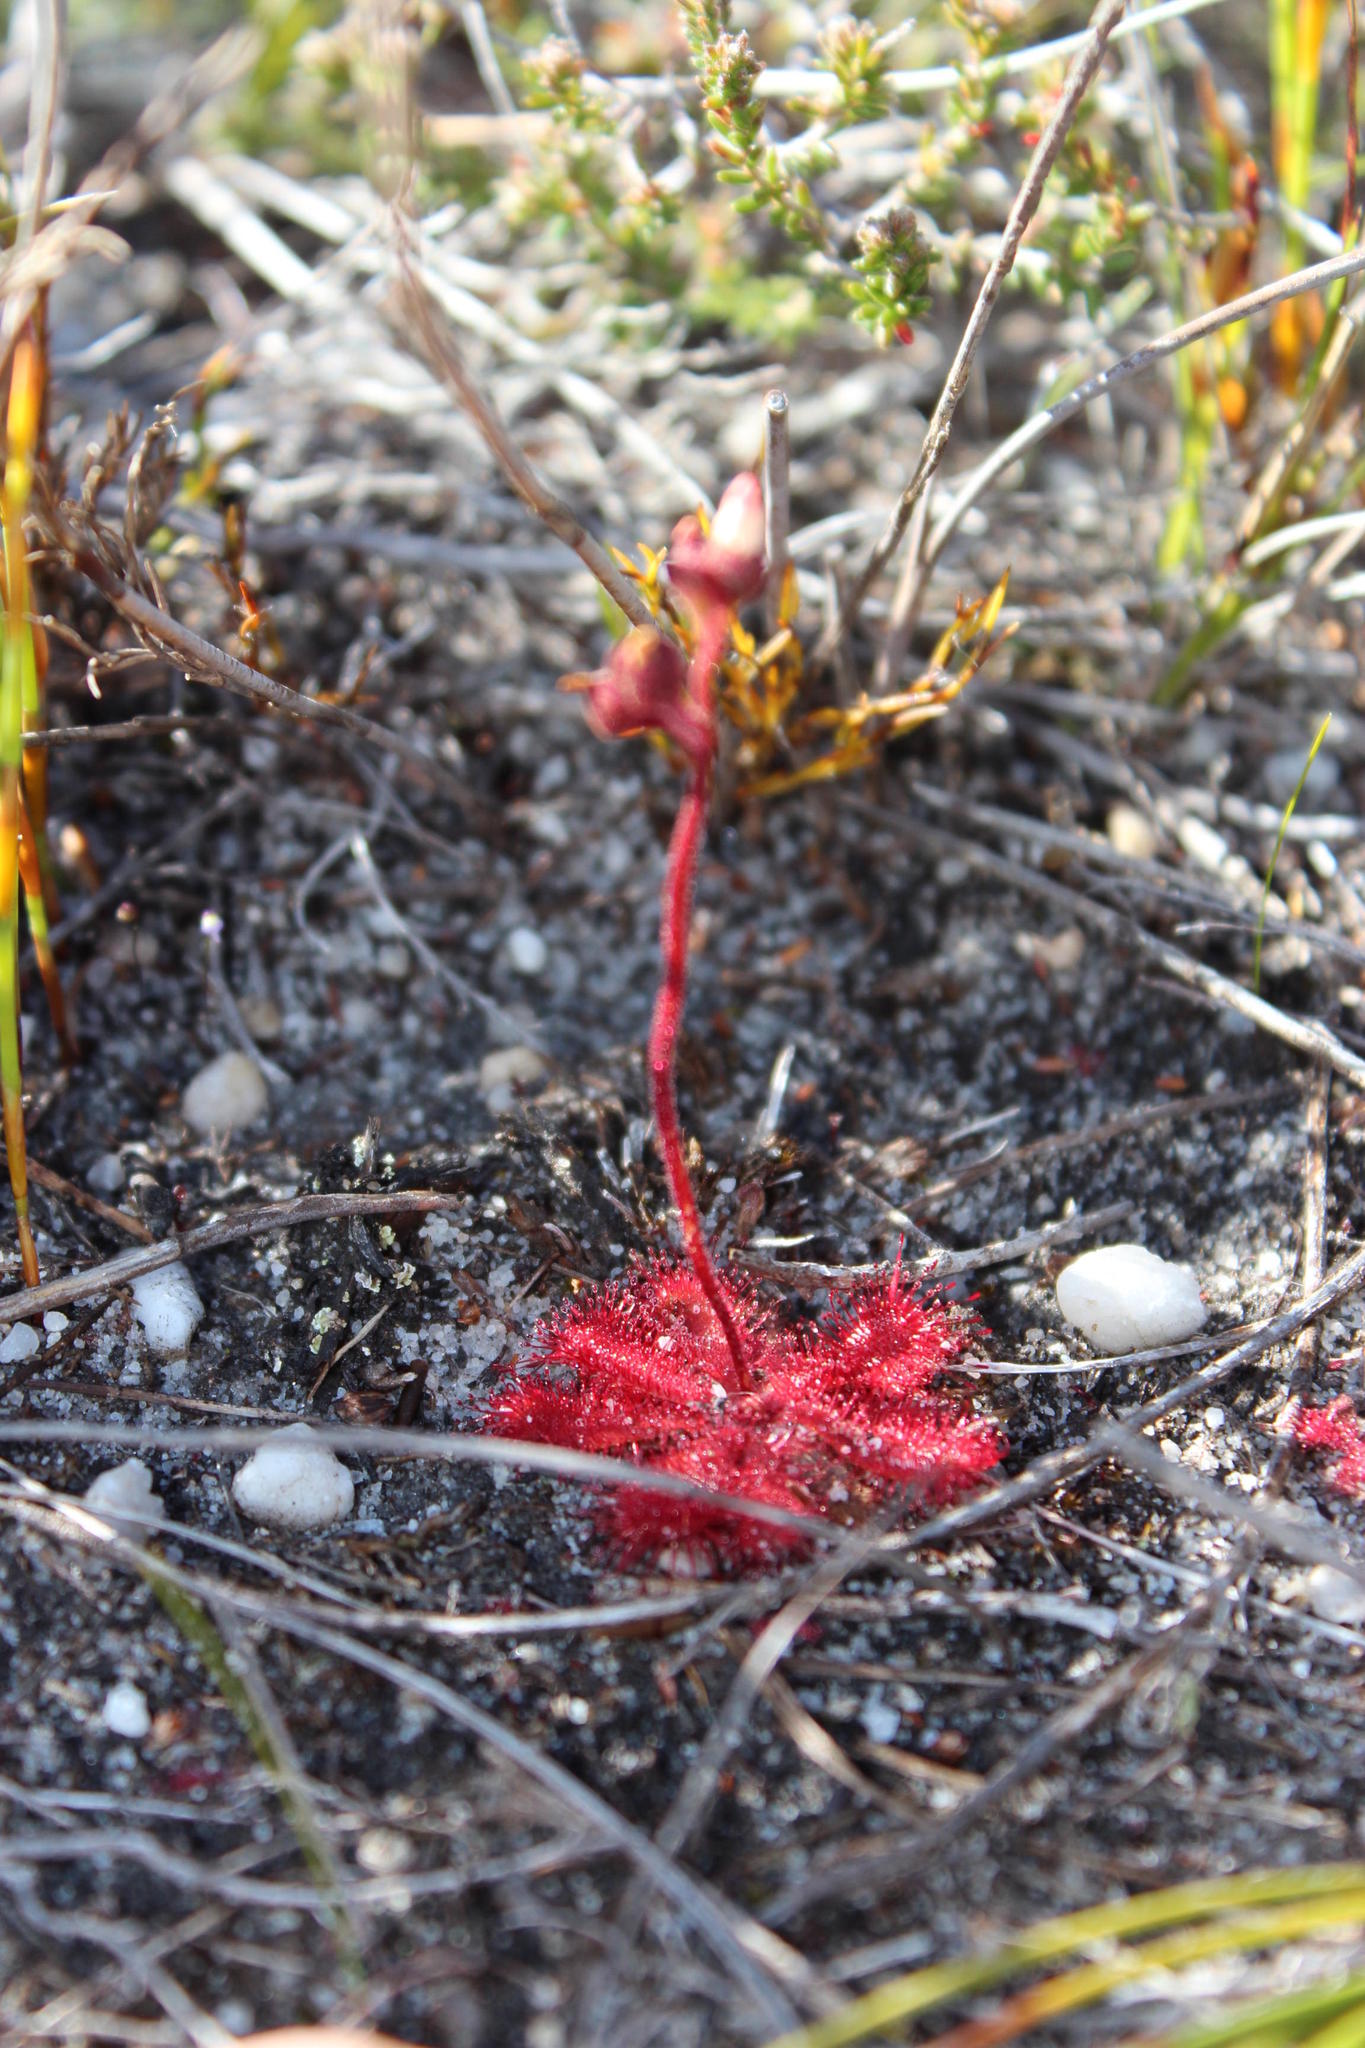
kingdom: Plantae
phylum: Tracheophyta
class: Magnoliopsida
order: Caryophyllales
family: Droseraceae
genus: Drosera
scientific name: Drosera trinervia
